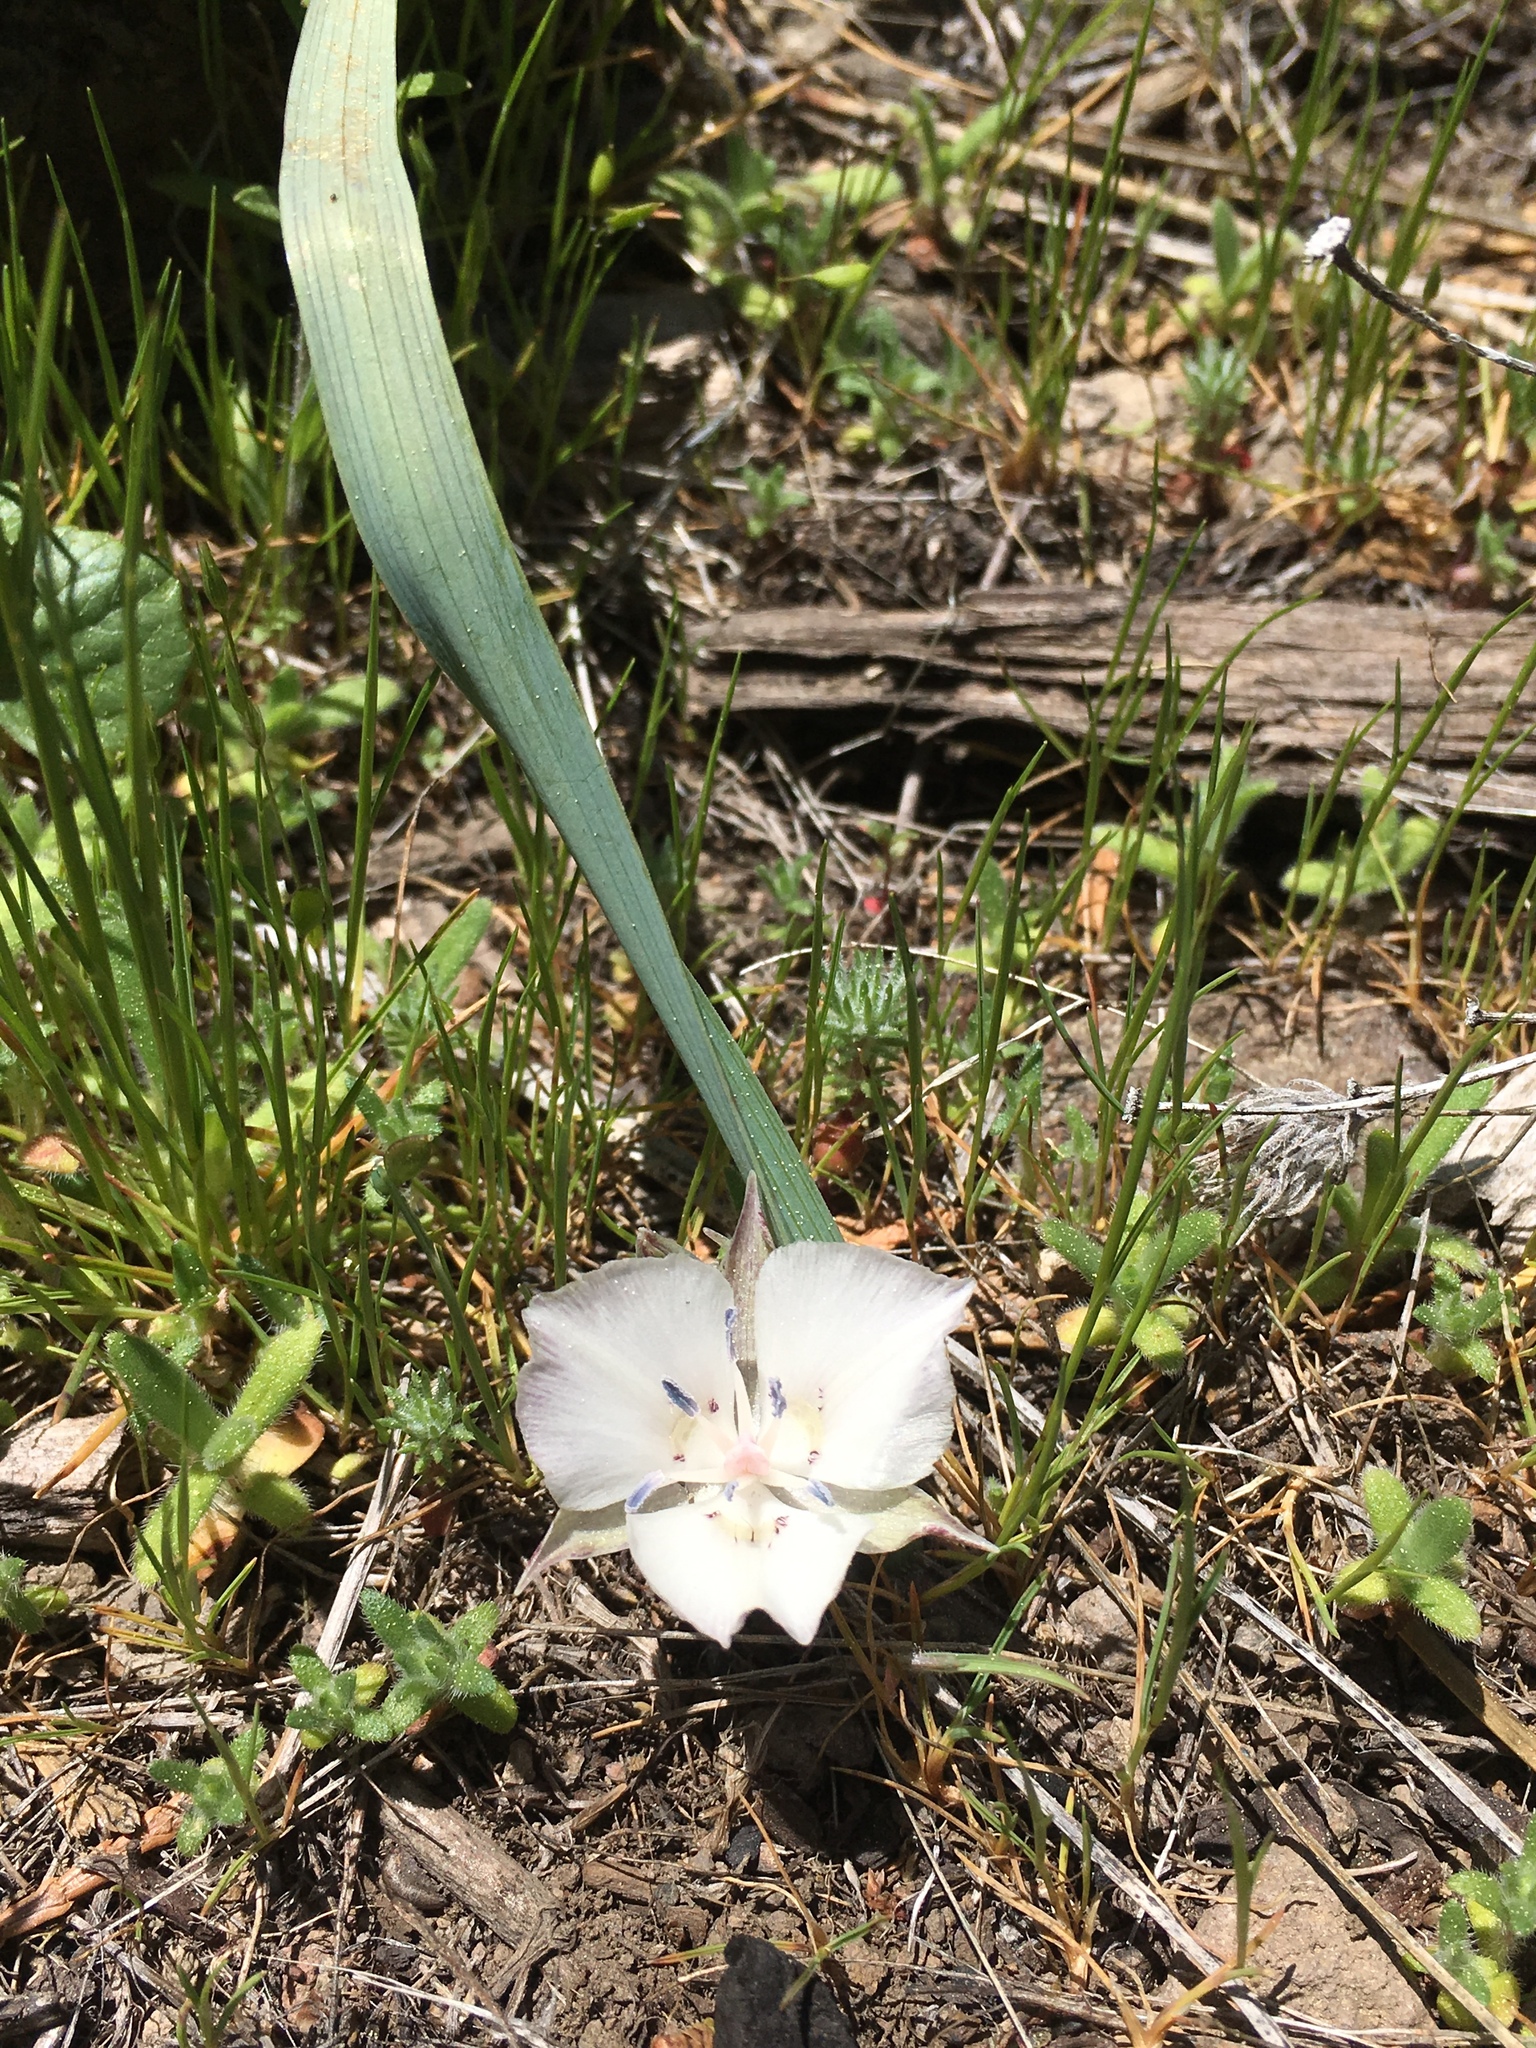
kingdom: Plantae
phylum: Tracheophyta
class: Liliopsida
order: Liliales
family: Liliaceae
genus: Calochortus
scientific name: Calochortus minimus
